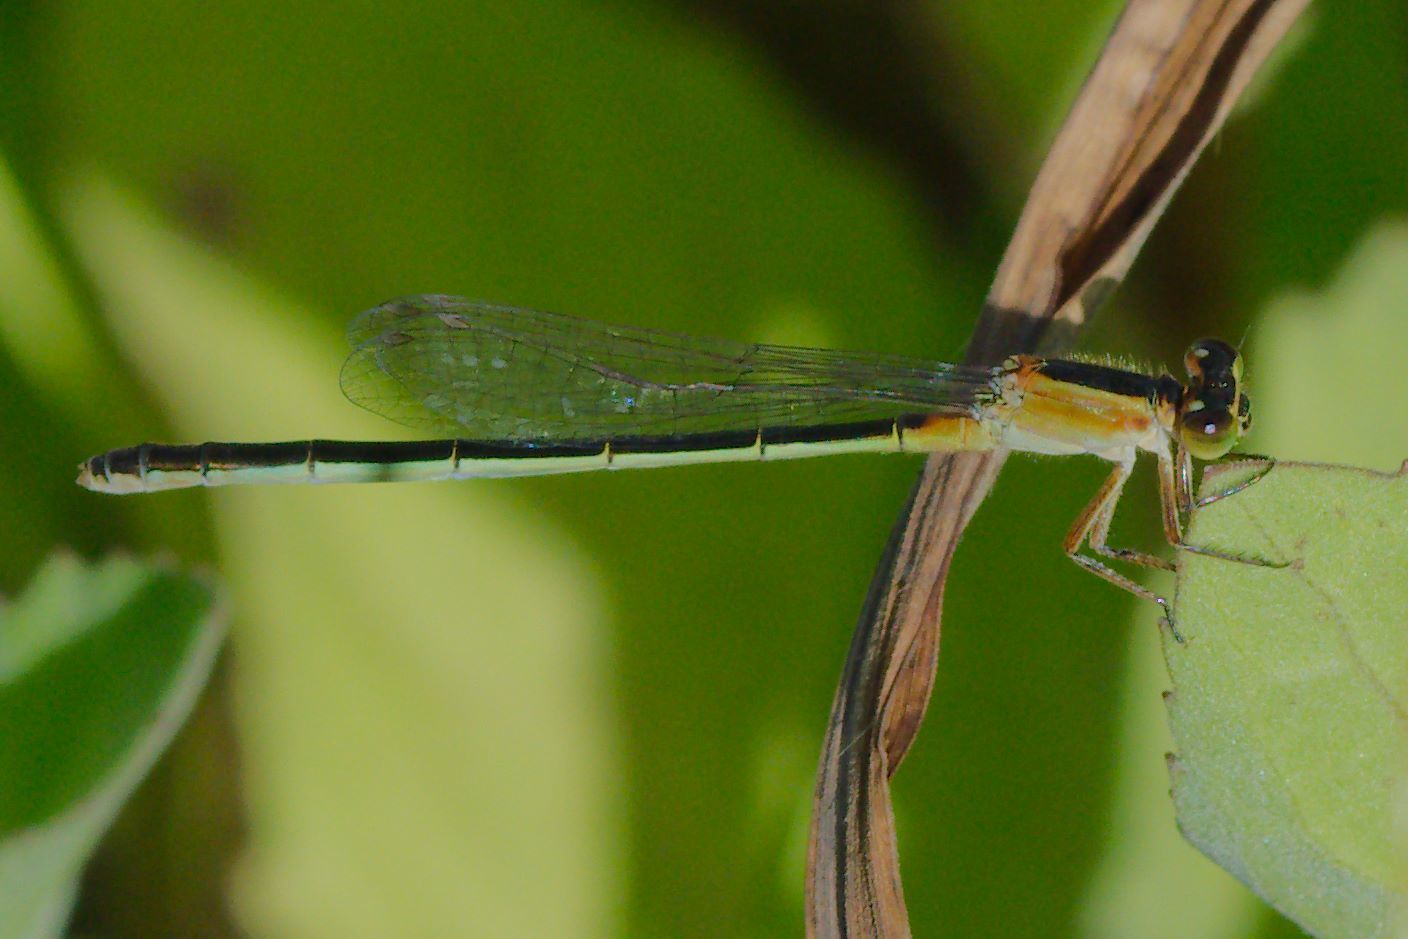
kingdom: Animalia
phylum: Arthropoda
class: Insecta
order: Odonata
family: Coenagrionidae
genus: Ischnura
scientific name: Ischnura ramburii
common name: Rambur's forktail
